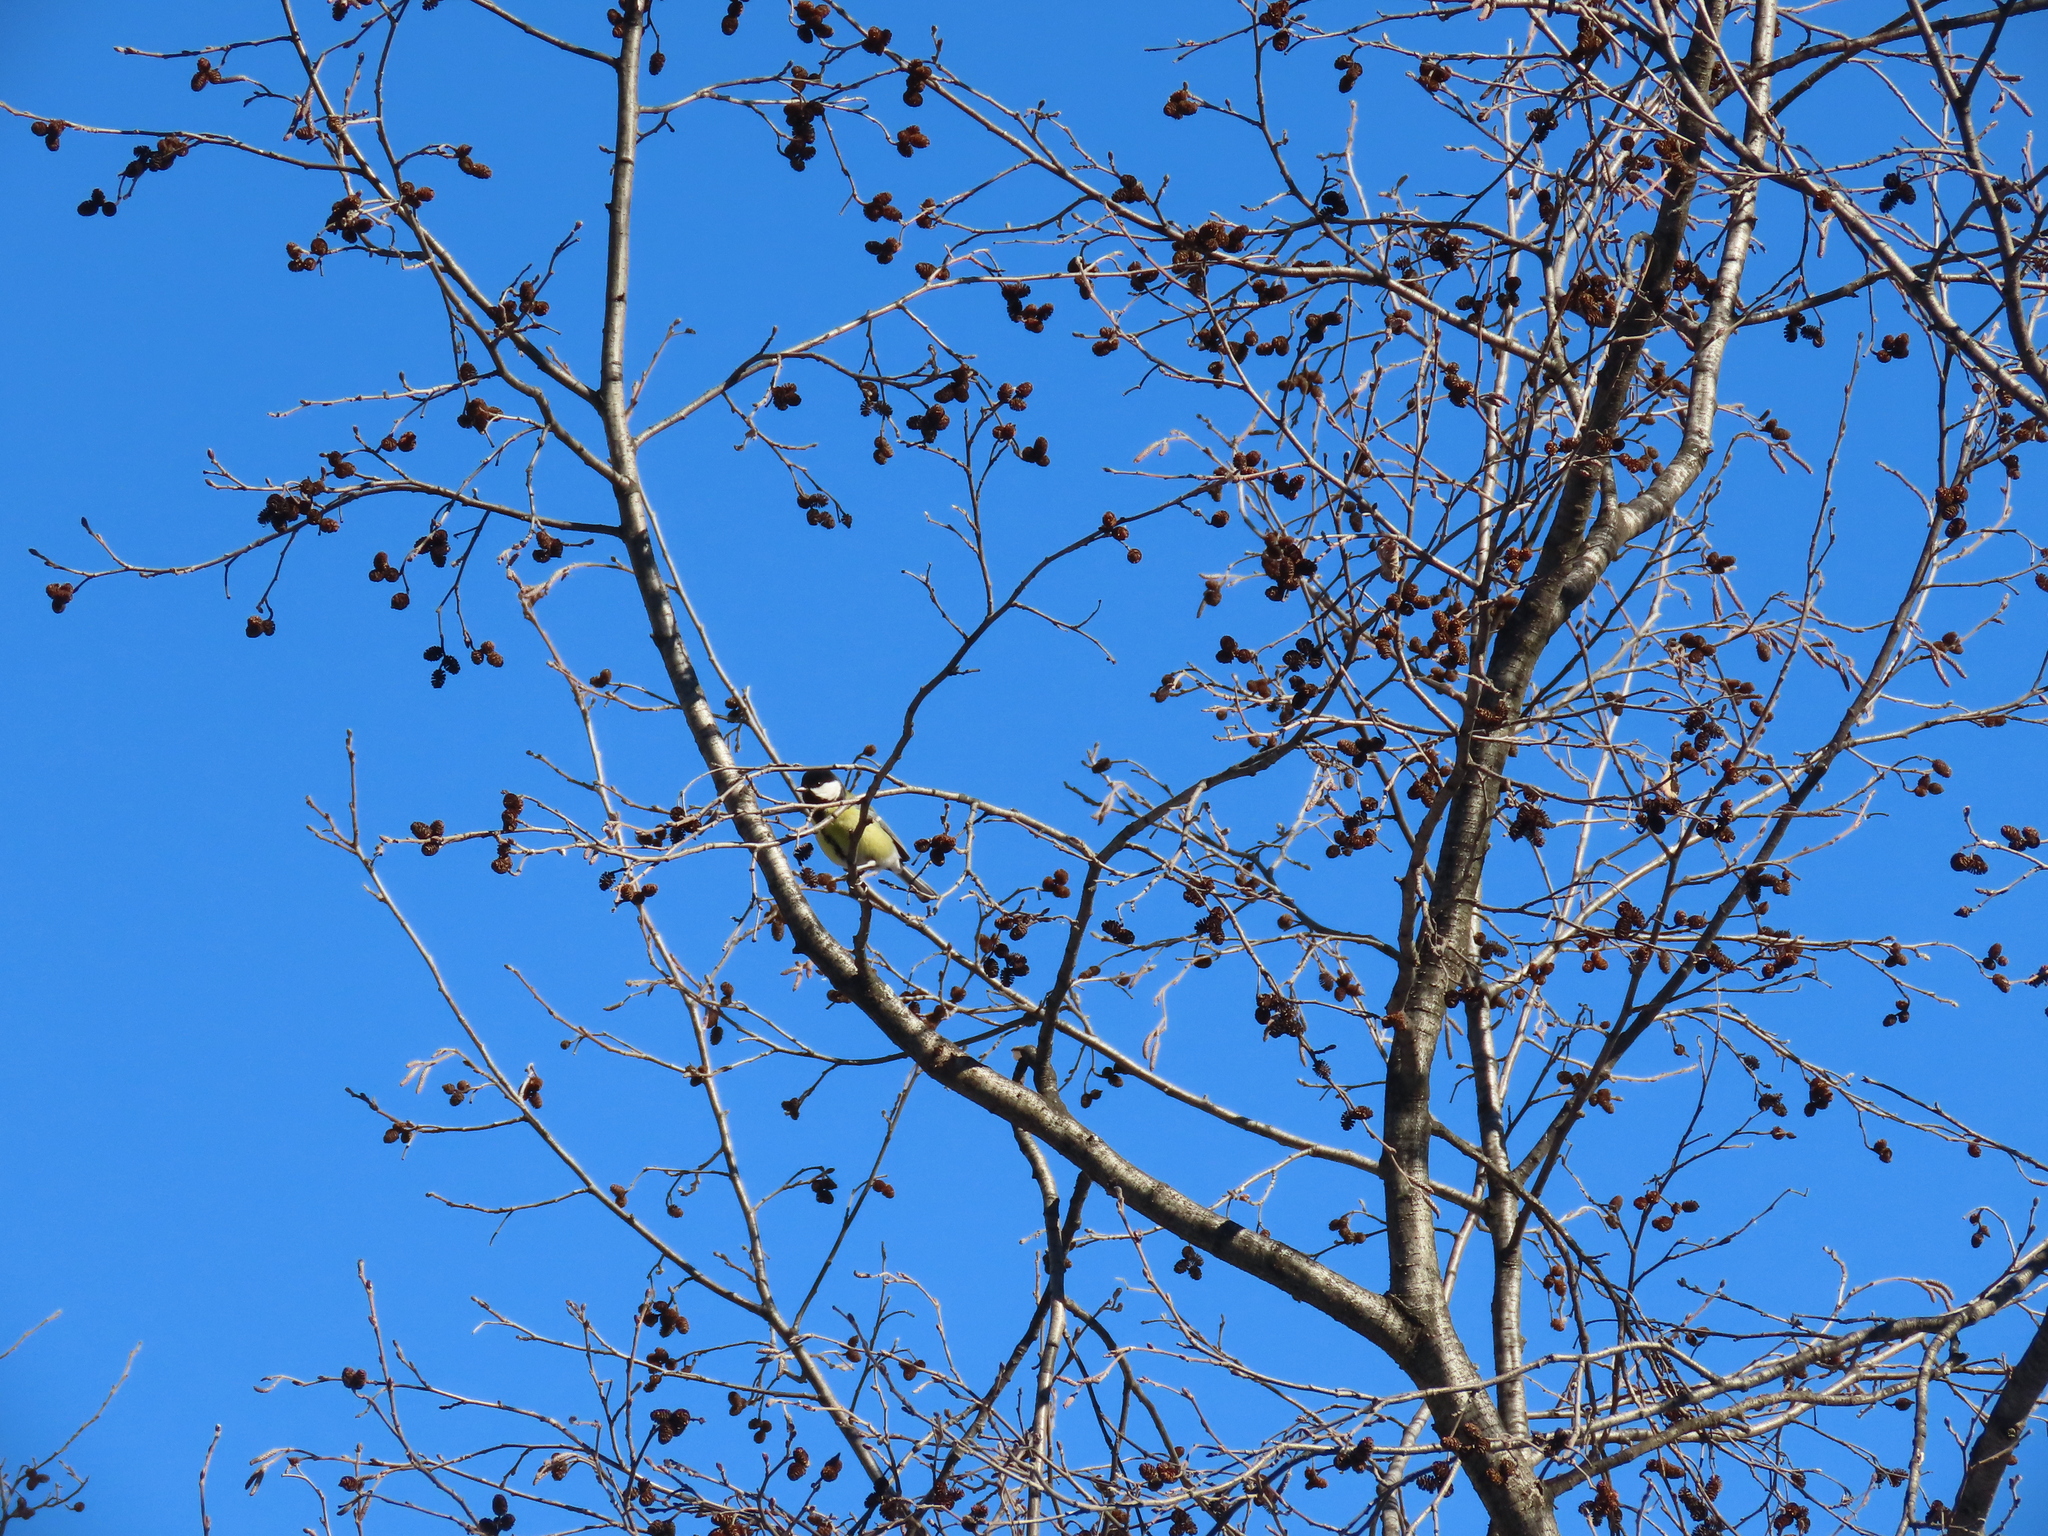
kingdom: Animalia
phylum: Chordata
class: Aves
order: Passeriformes
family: Paridae
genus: Parus
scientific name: Parus major
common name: Great tit
